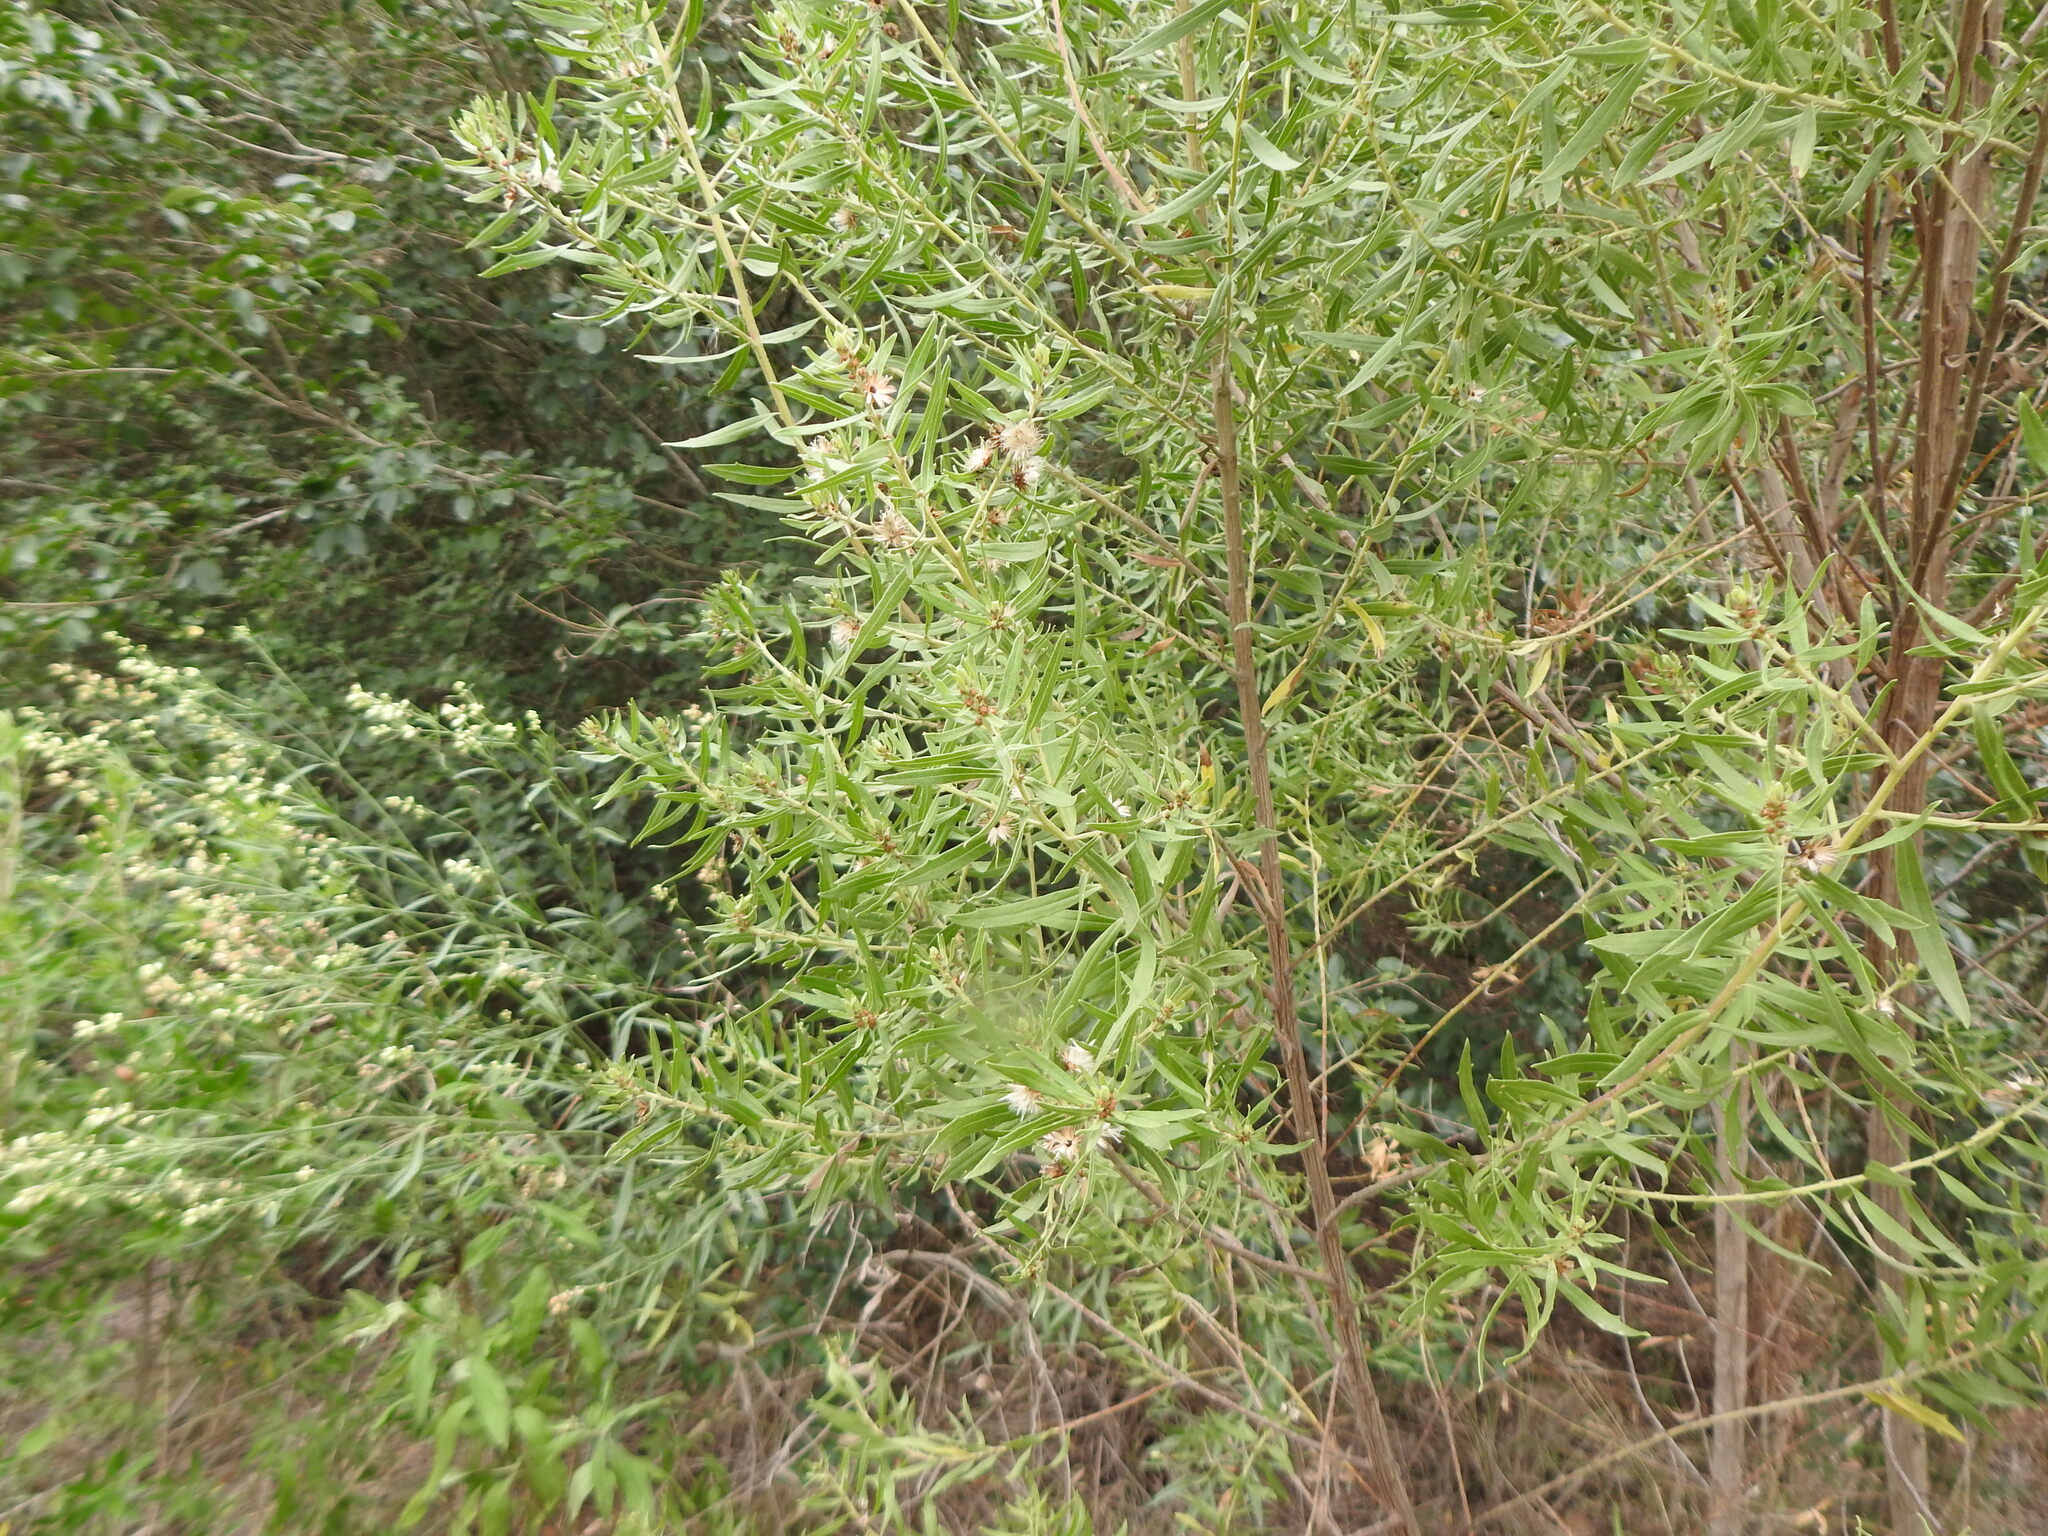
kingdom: Plantae
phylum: Tracheophyta
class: Magnoliopsida
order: Asterales
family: Asteraceae
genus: Baccharis
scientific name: Baccharis dracunculifolia
